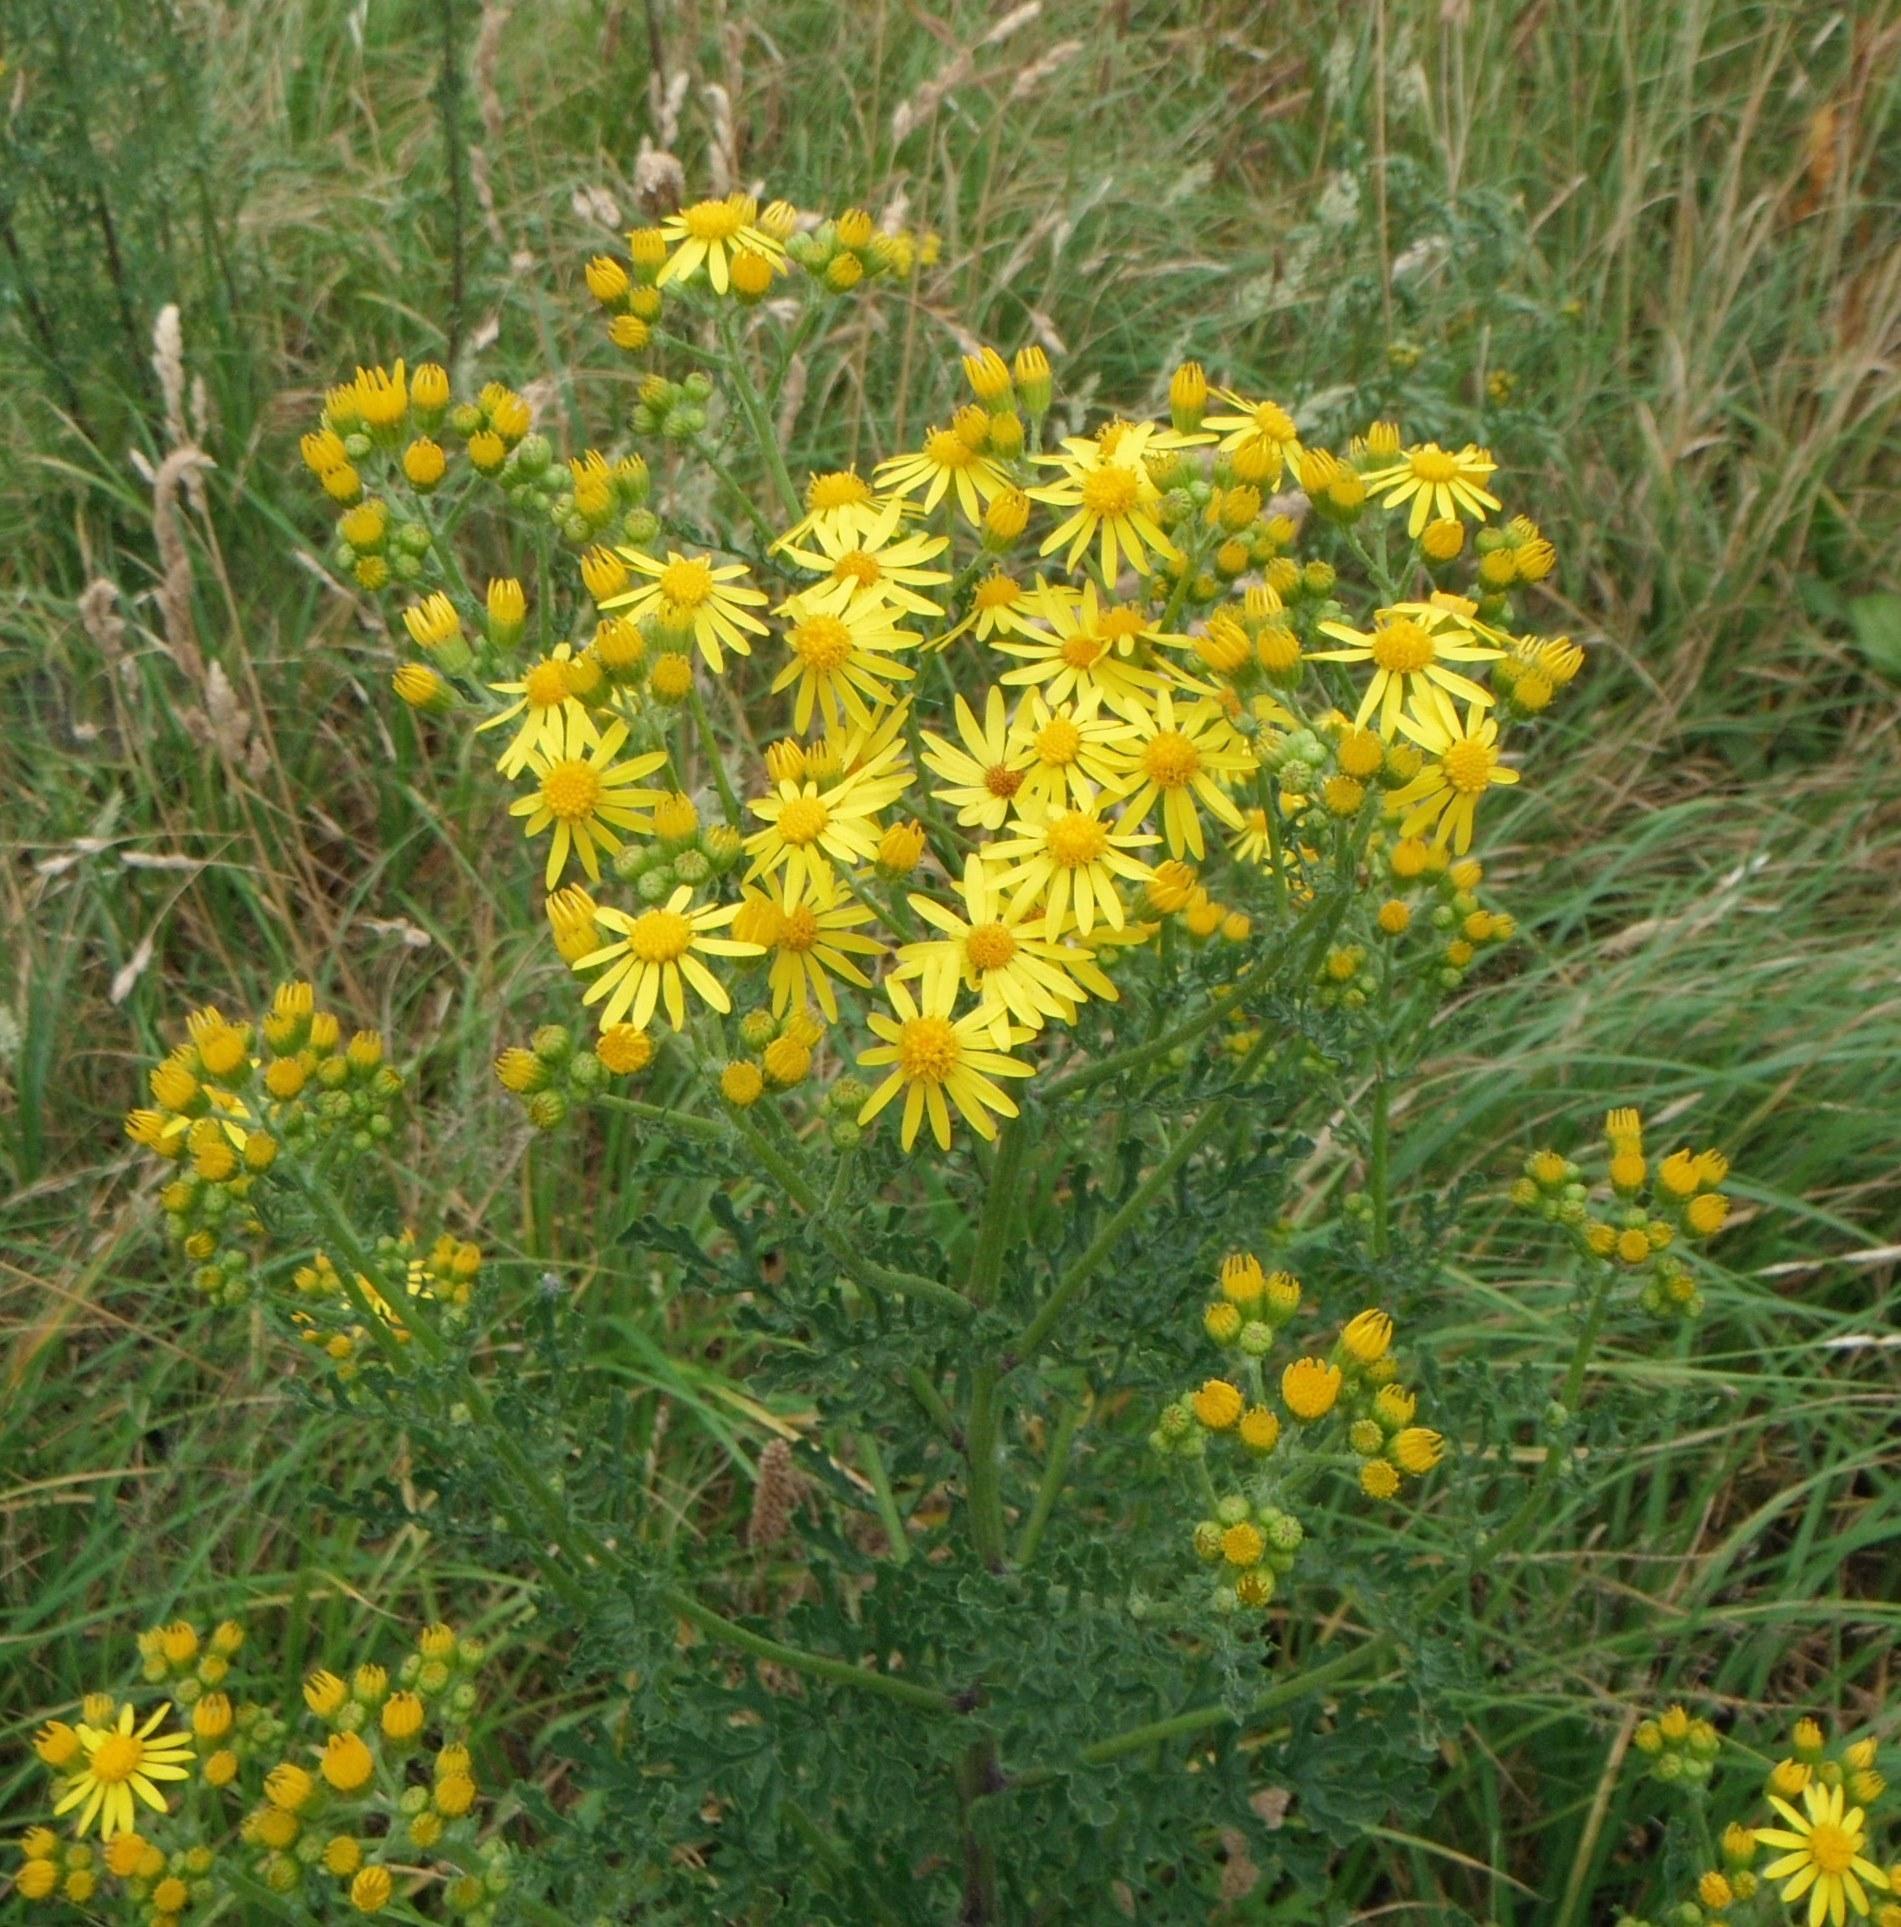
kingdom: Plantae
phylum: Tracheophyta
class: Magnoliopsida
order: Asterales
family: Asteraceae
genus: Jacobaea
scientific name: Jacobaea vulgaris
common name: Stinking willie
